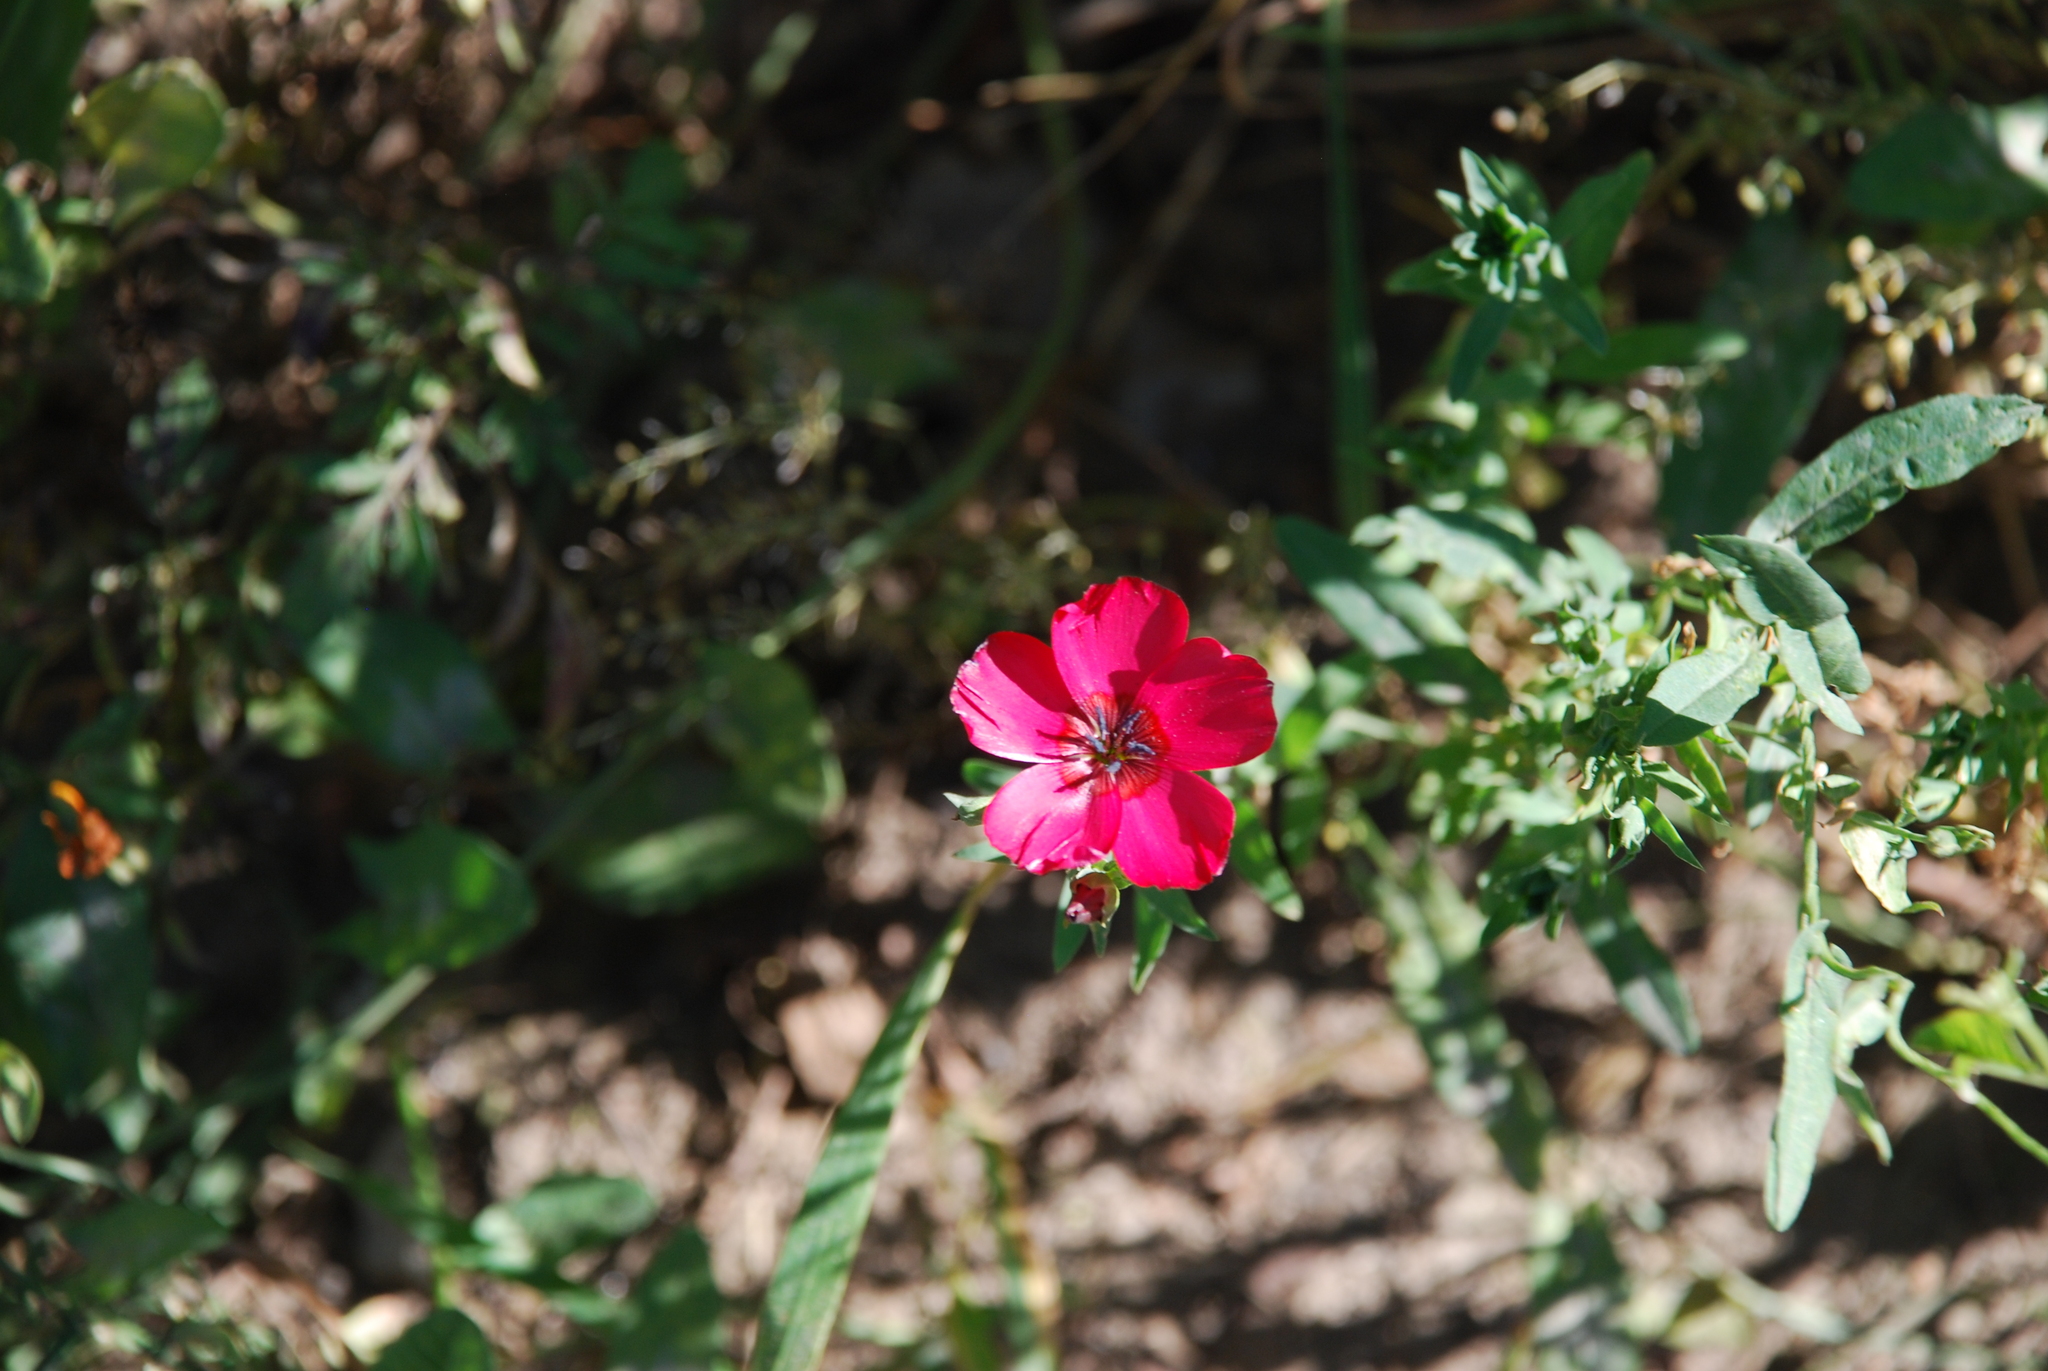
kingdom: Plantae
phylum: Tracheophyta
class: Magnoliopsida
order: Malpighiales
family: Linaceae
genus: Linum
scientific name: Linum grandiflorum
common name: Crimson flax
